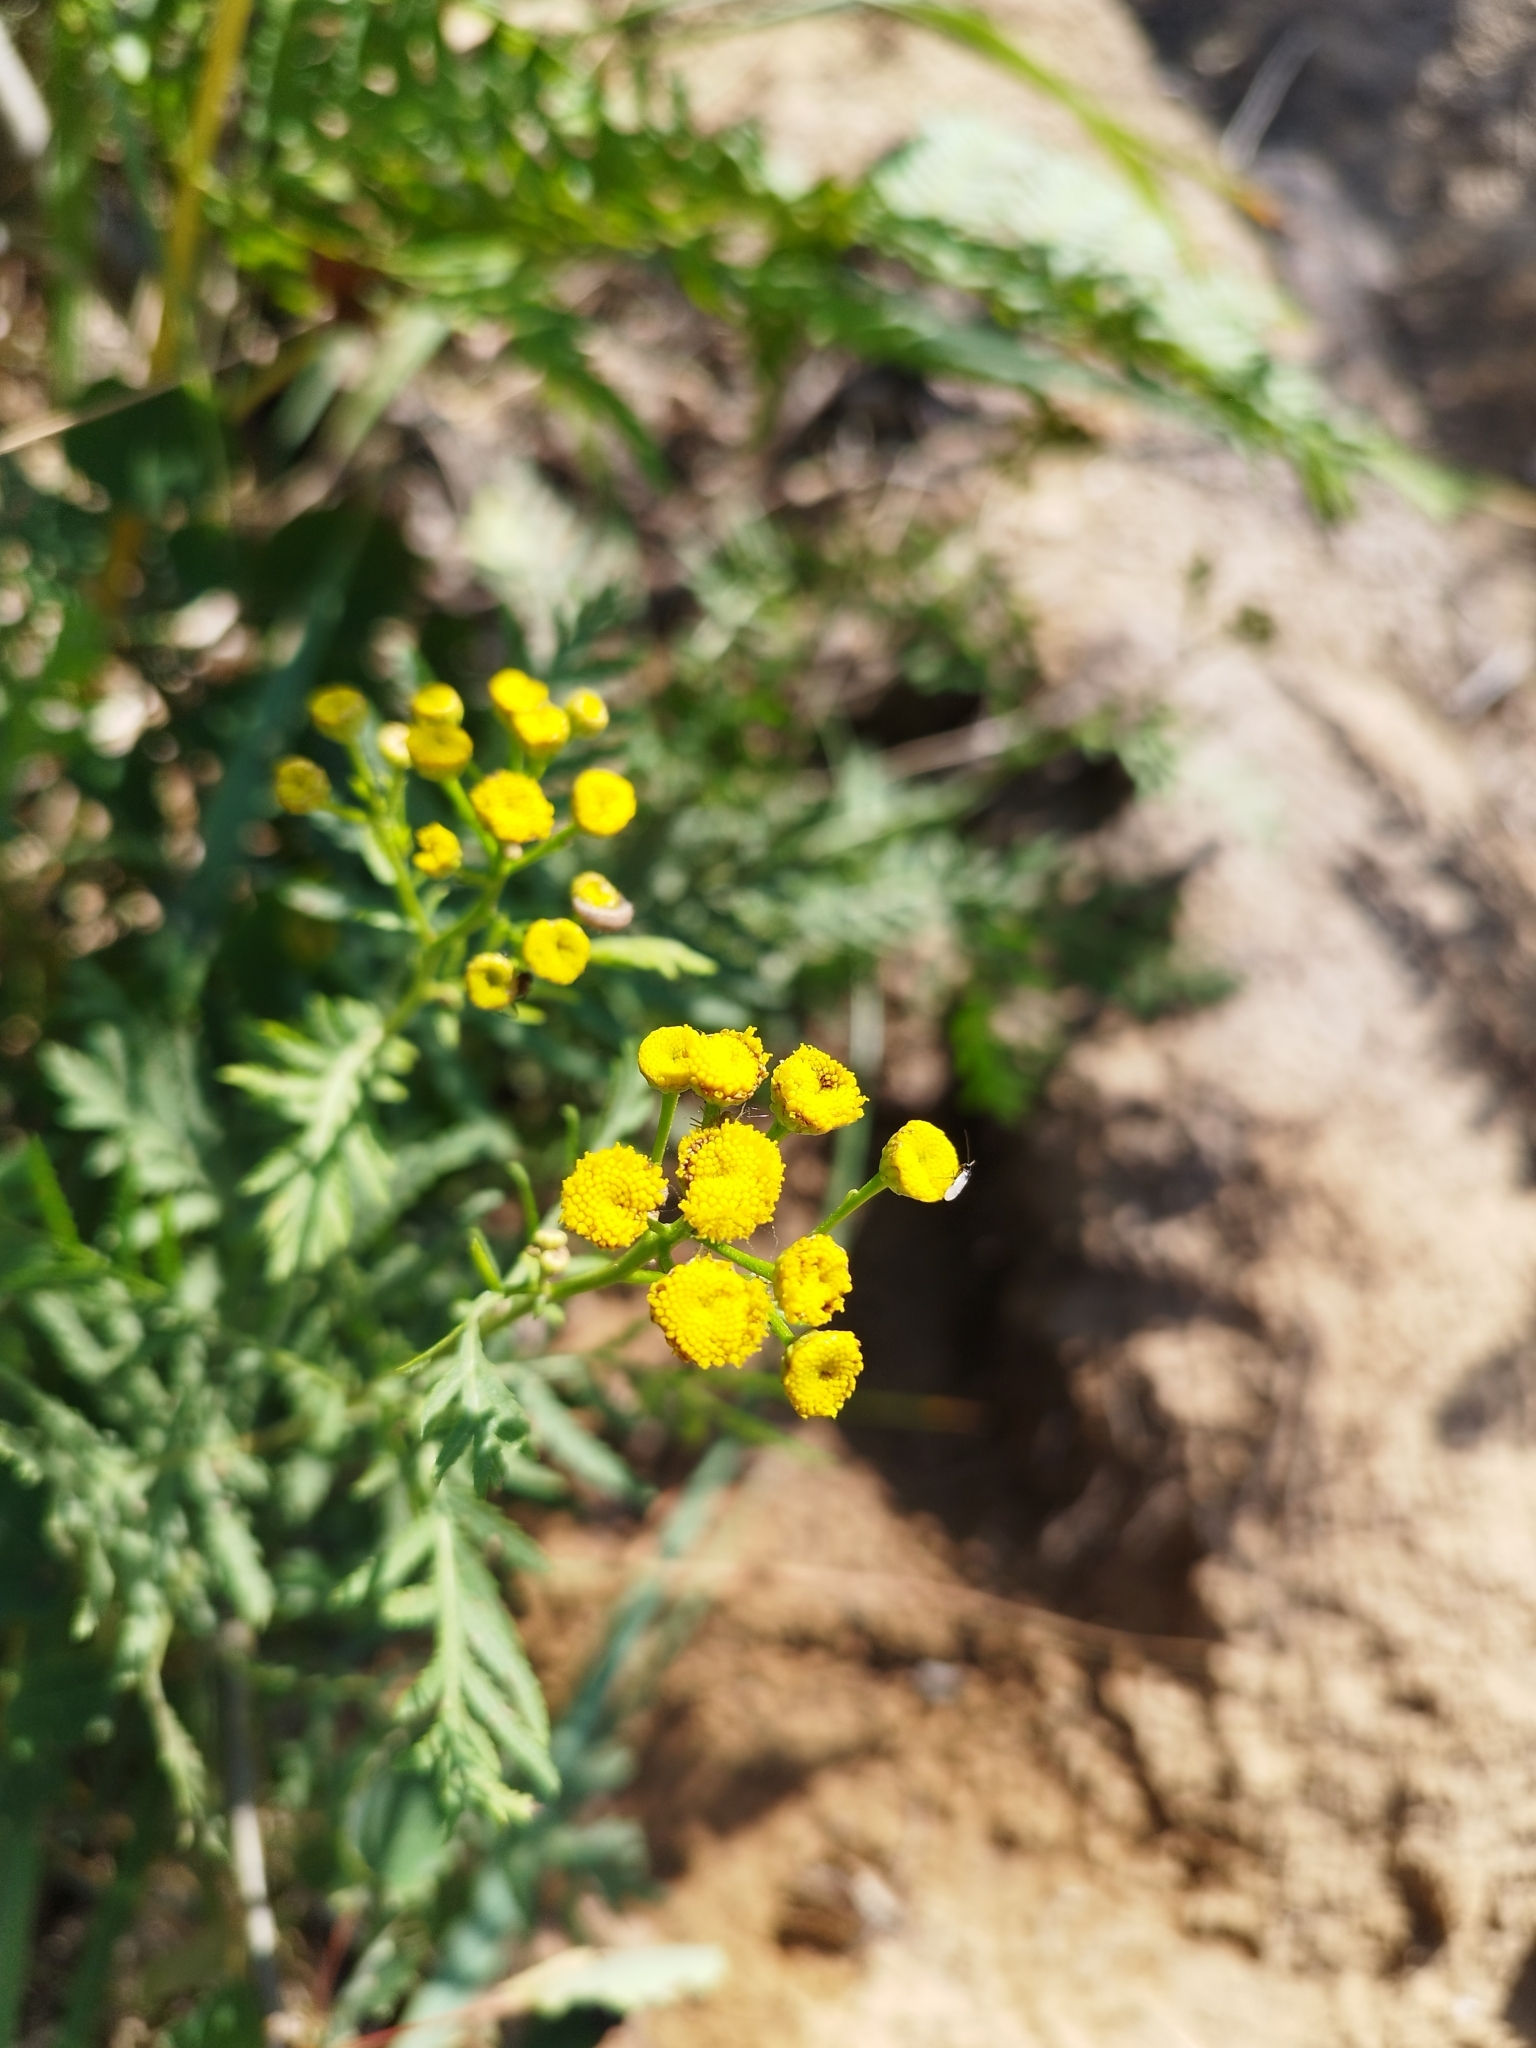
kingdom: Plantae
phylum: Tracheophyta
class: Magnoliopsida
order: Asterales
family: Asteraceae
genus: Tanacetum
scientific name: Tanacetum vulgare
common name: Common tansy
